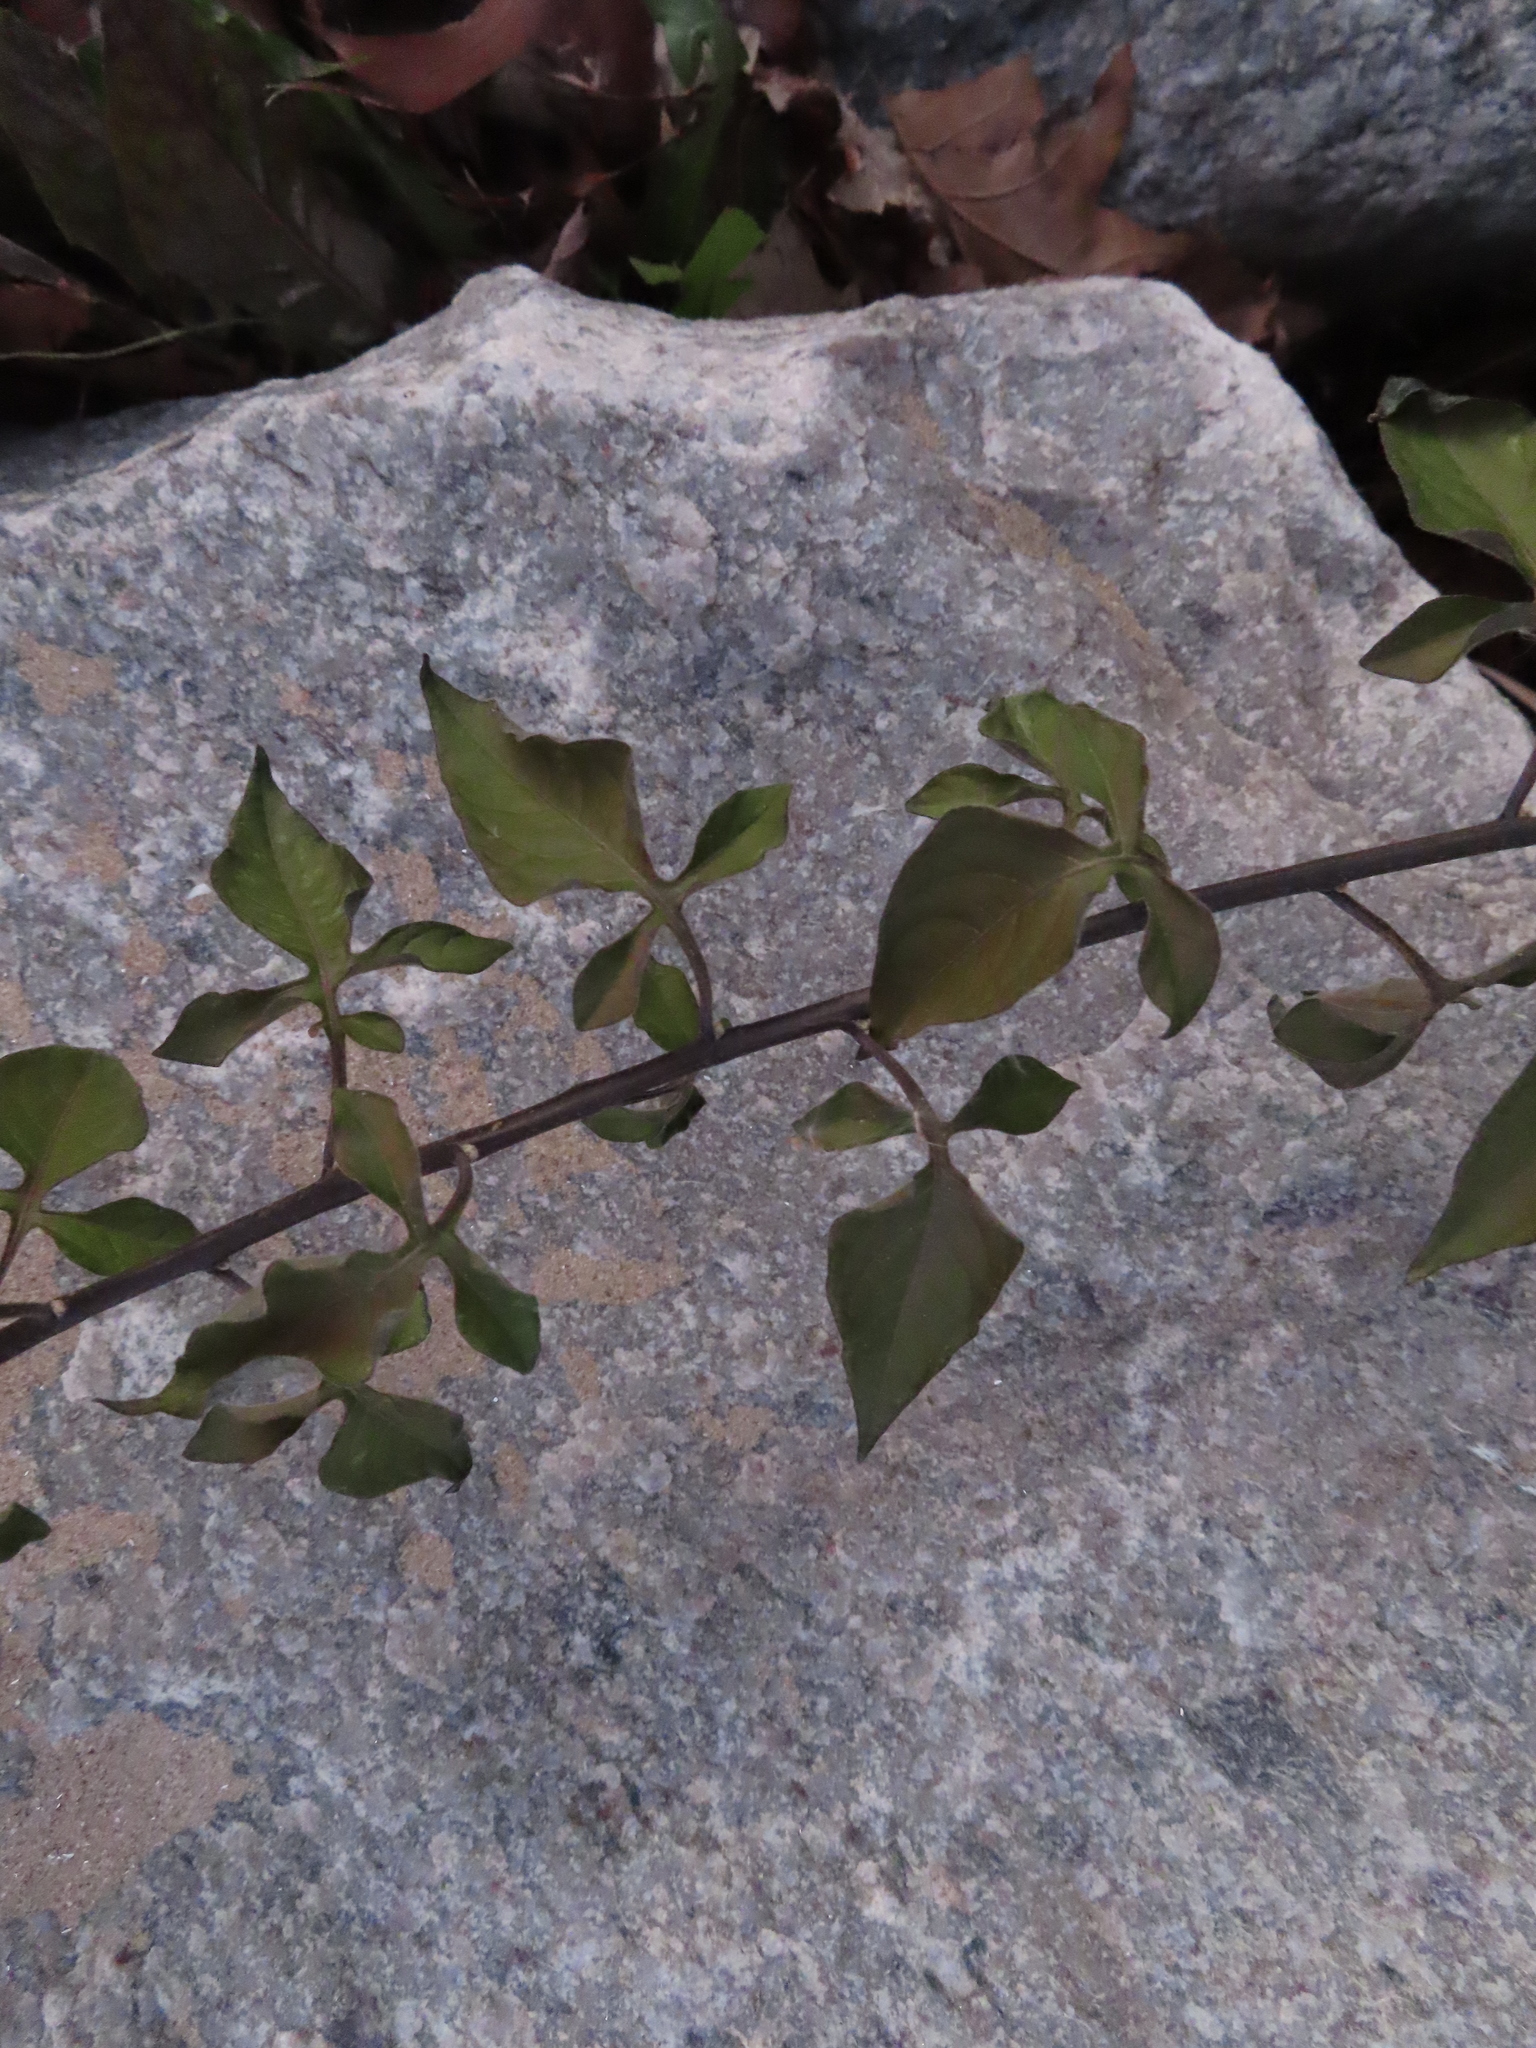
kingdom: Plantae
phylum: Tracheophyta
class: Magnoliopsida
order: Solanales
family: Solanaceae
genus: Solanum
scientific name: Solanum dulcamara
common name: Climbing nightshade
